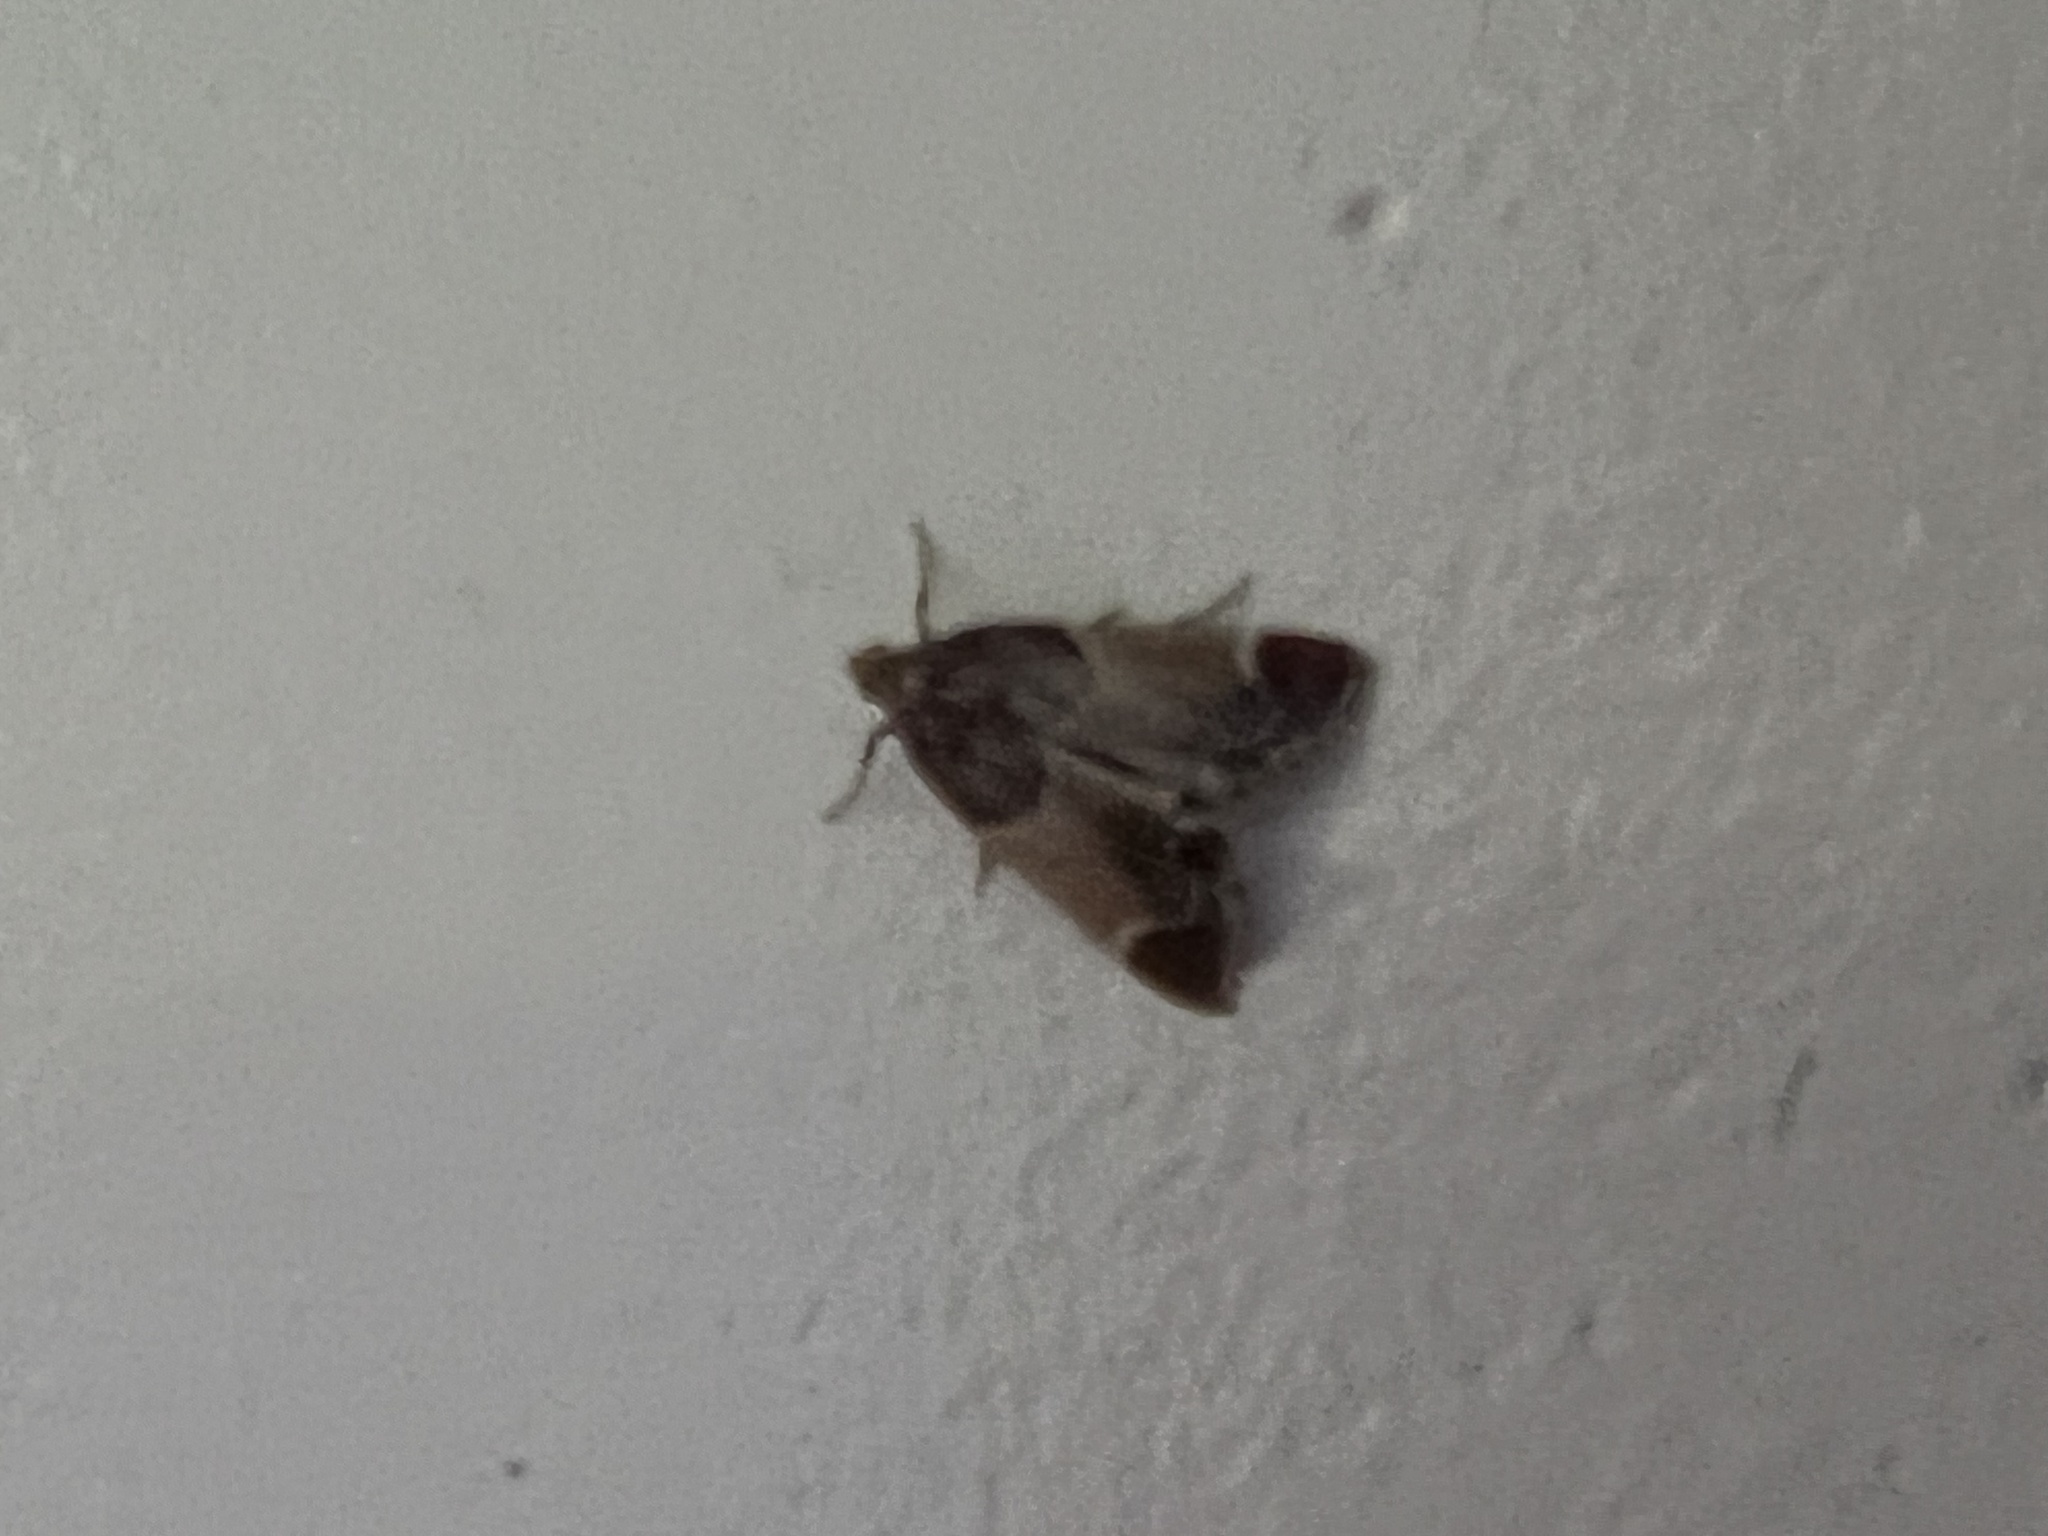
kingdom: Animalia
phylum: Arthropoda
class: Insecta
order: Lepidoptera
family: Pyralidae
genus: Pyralis
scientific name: Pyralis farinalis
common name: Meal moth
